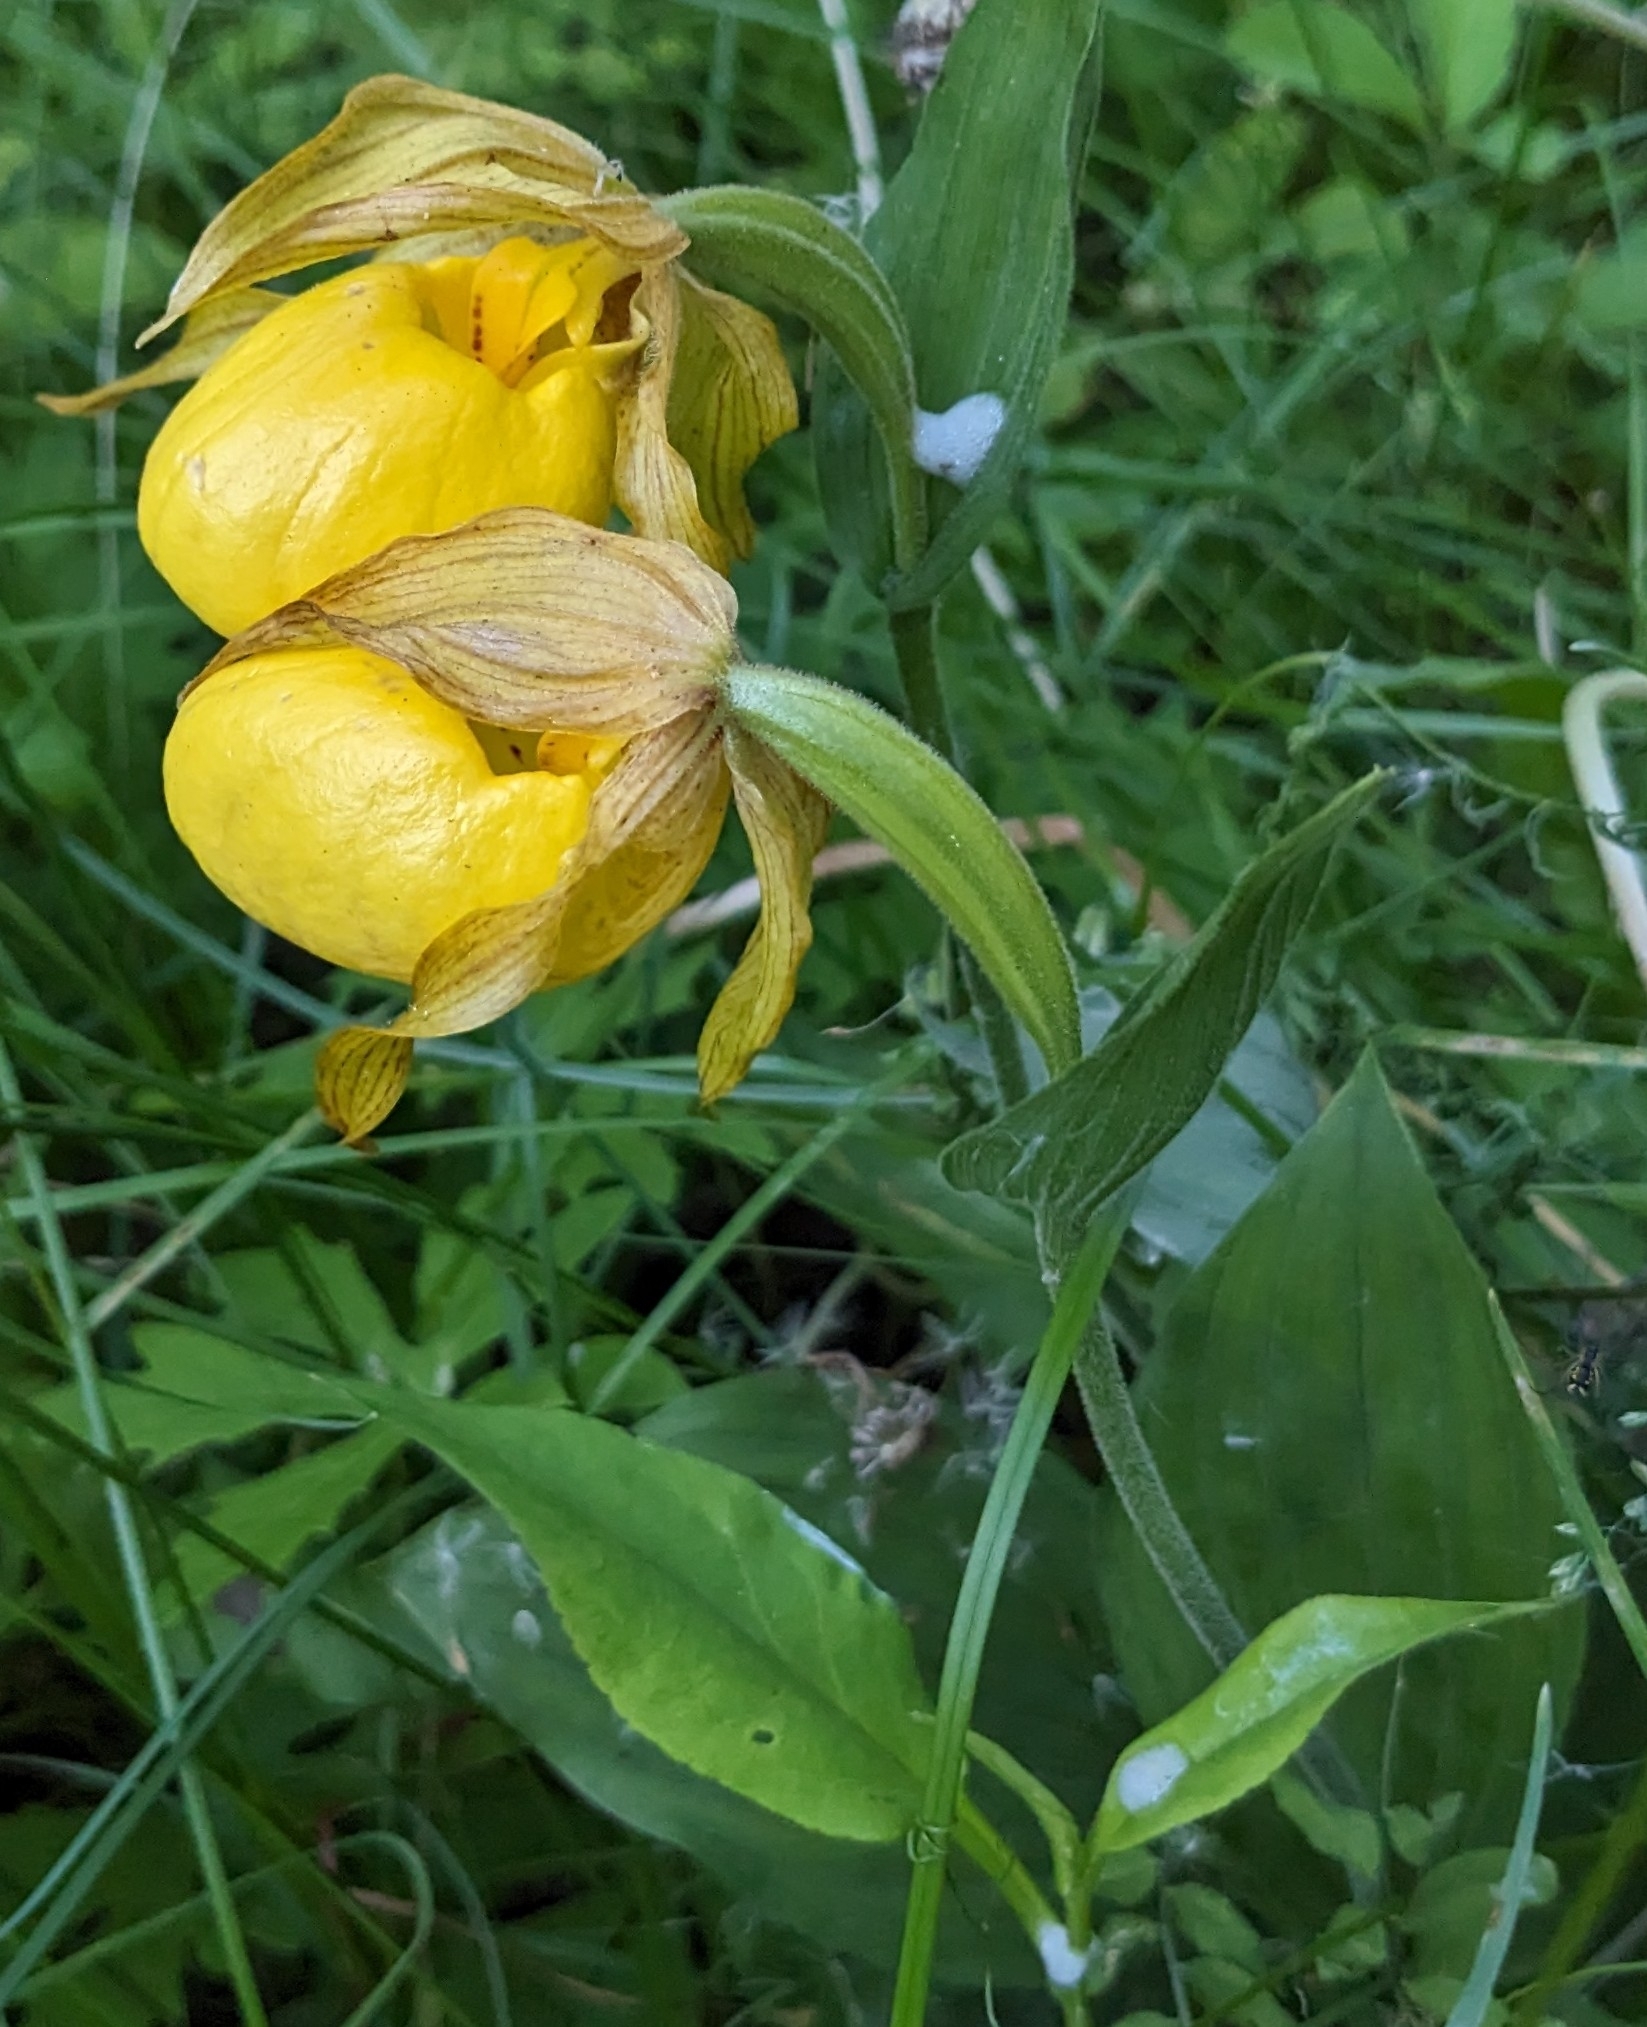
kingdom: Plantae
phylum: Tracheophyta
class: Liliopsida
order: Asparagales
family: Orchidaceae
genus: Cypripedium
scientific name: Cypripedium parviflorum
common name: American yellow lady's-slipper
